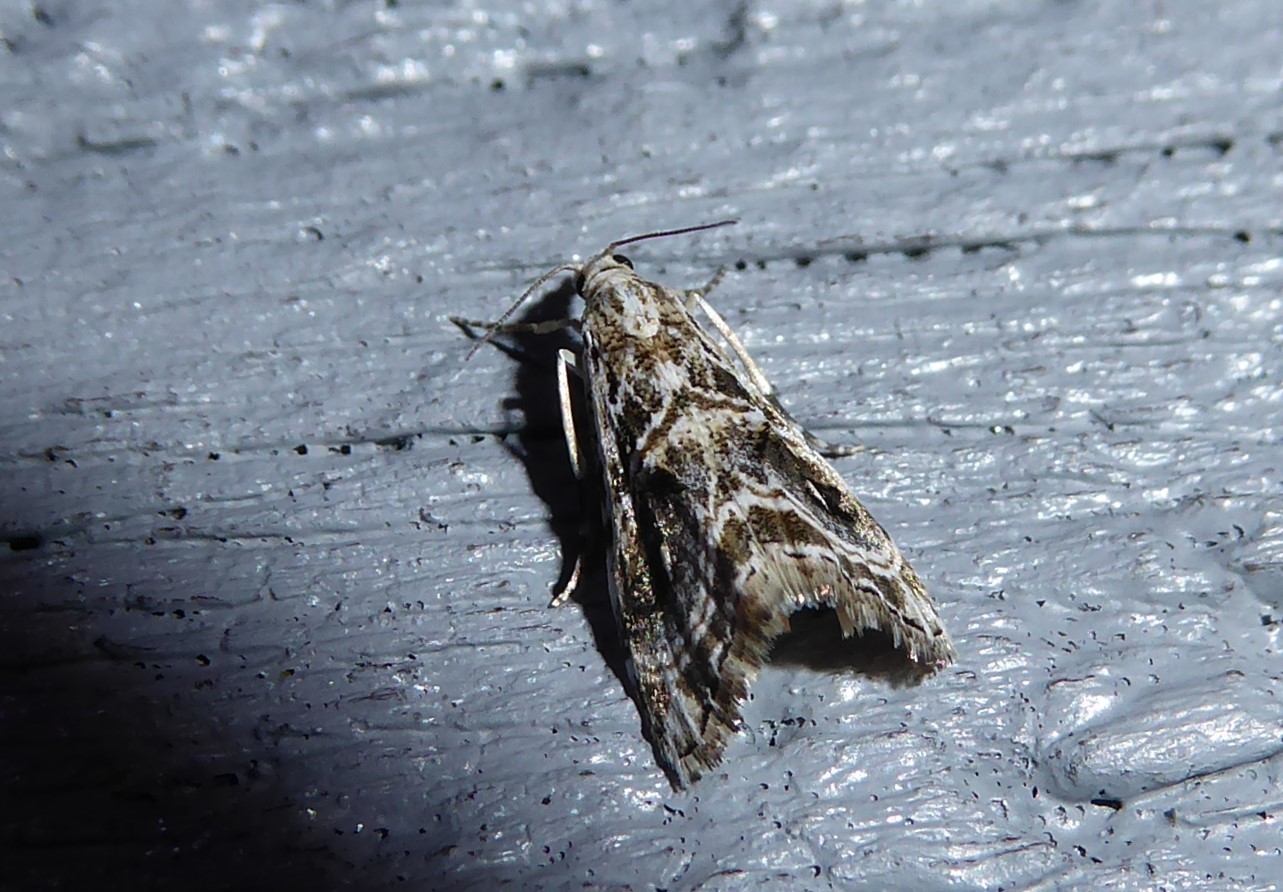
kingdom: Animalia
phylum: Arthropoda
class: Insecta
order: Lepidoptera
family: Crambidae
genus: Gadira
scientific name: Gadira acerella
